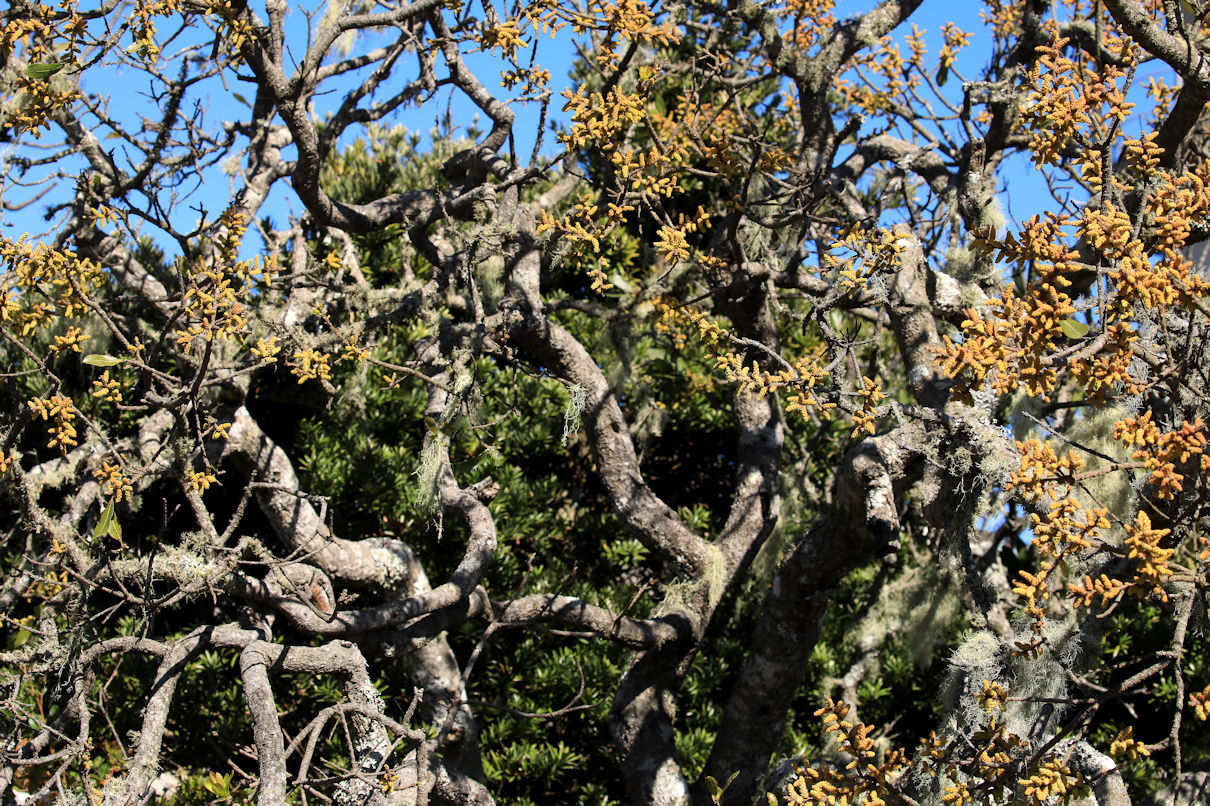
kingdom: Plantae
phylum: Tracheophyta
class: Magnoliopsida
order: Fagales
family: Myricaceae
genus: Morella
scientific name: Morella pilulifera
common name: Broad-leaved waxberry
